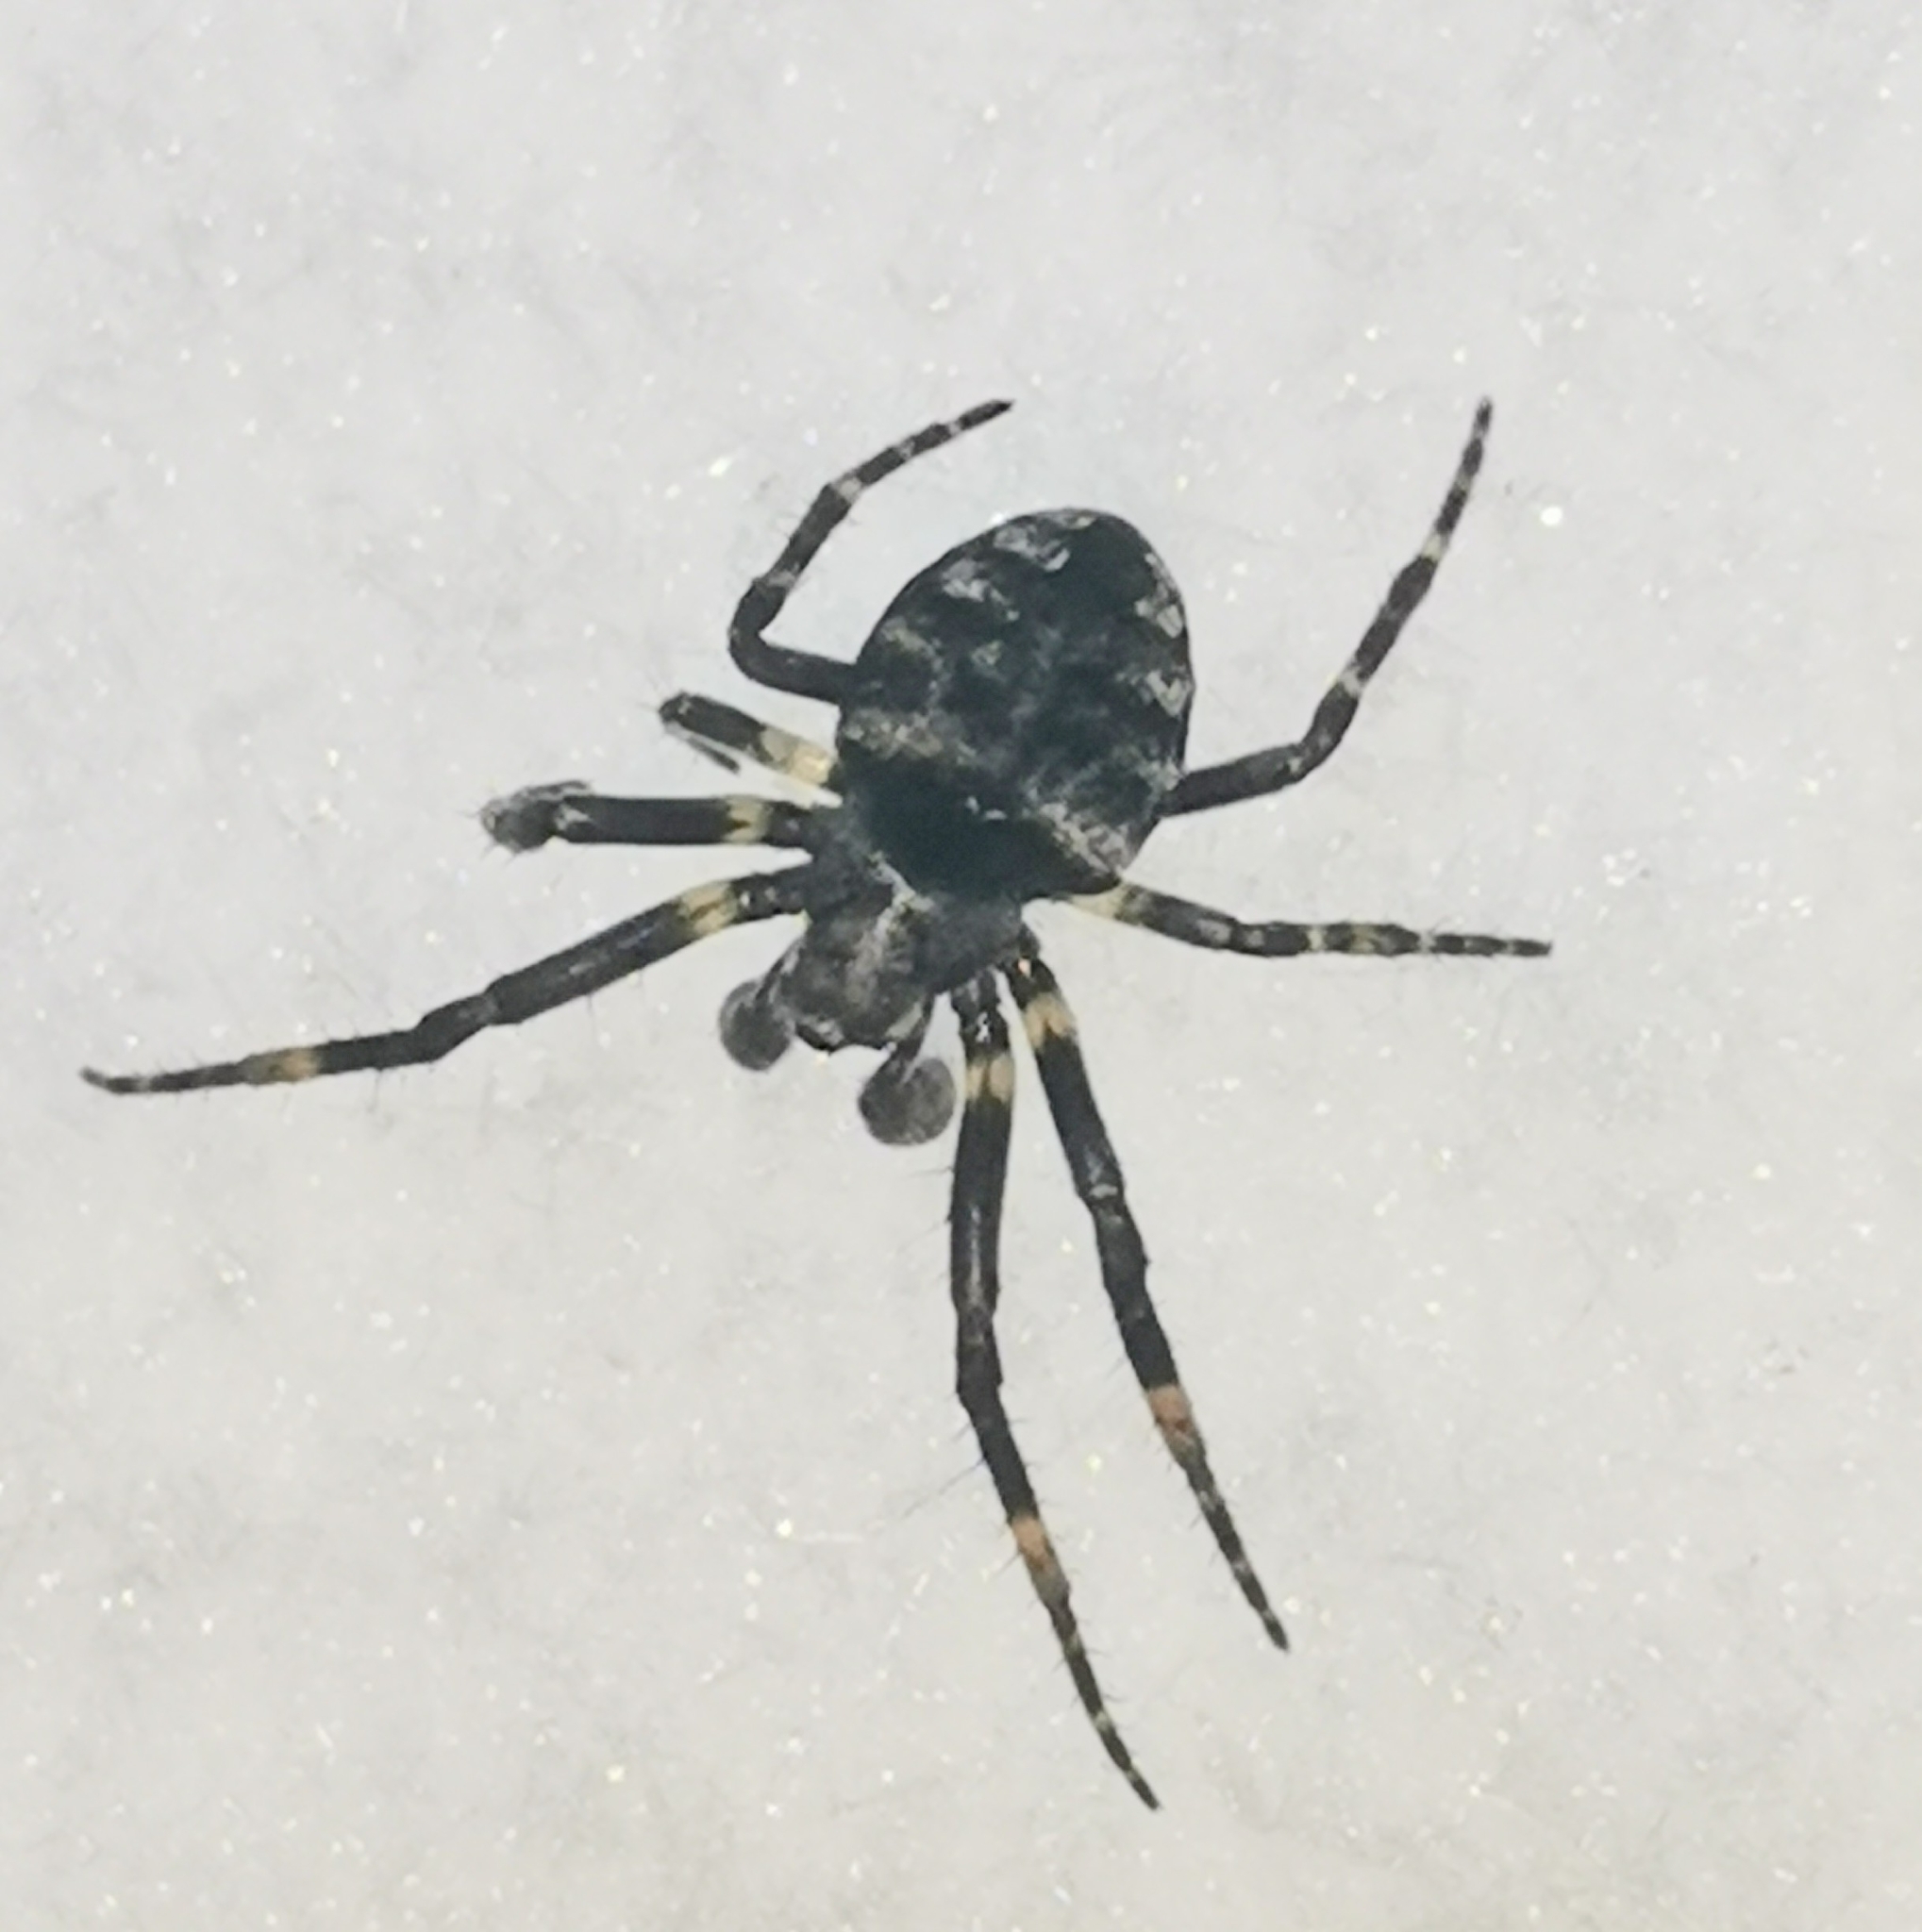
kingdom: Animalia
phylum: Arthropoda
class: Arachnida
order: Araneae
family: Araneidae
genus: Gibbaranea
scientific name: Gibbaranea omoeda
